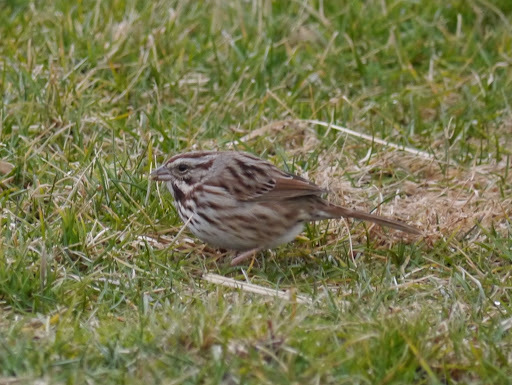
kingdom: Animalia
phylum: Chordata
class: Aves
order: Passeriformes
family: Passerellidae
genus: Melospiza
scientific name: Melospiza melodia
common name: Song sparrow
